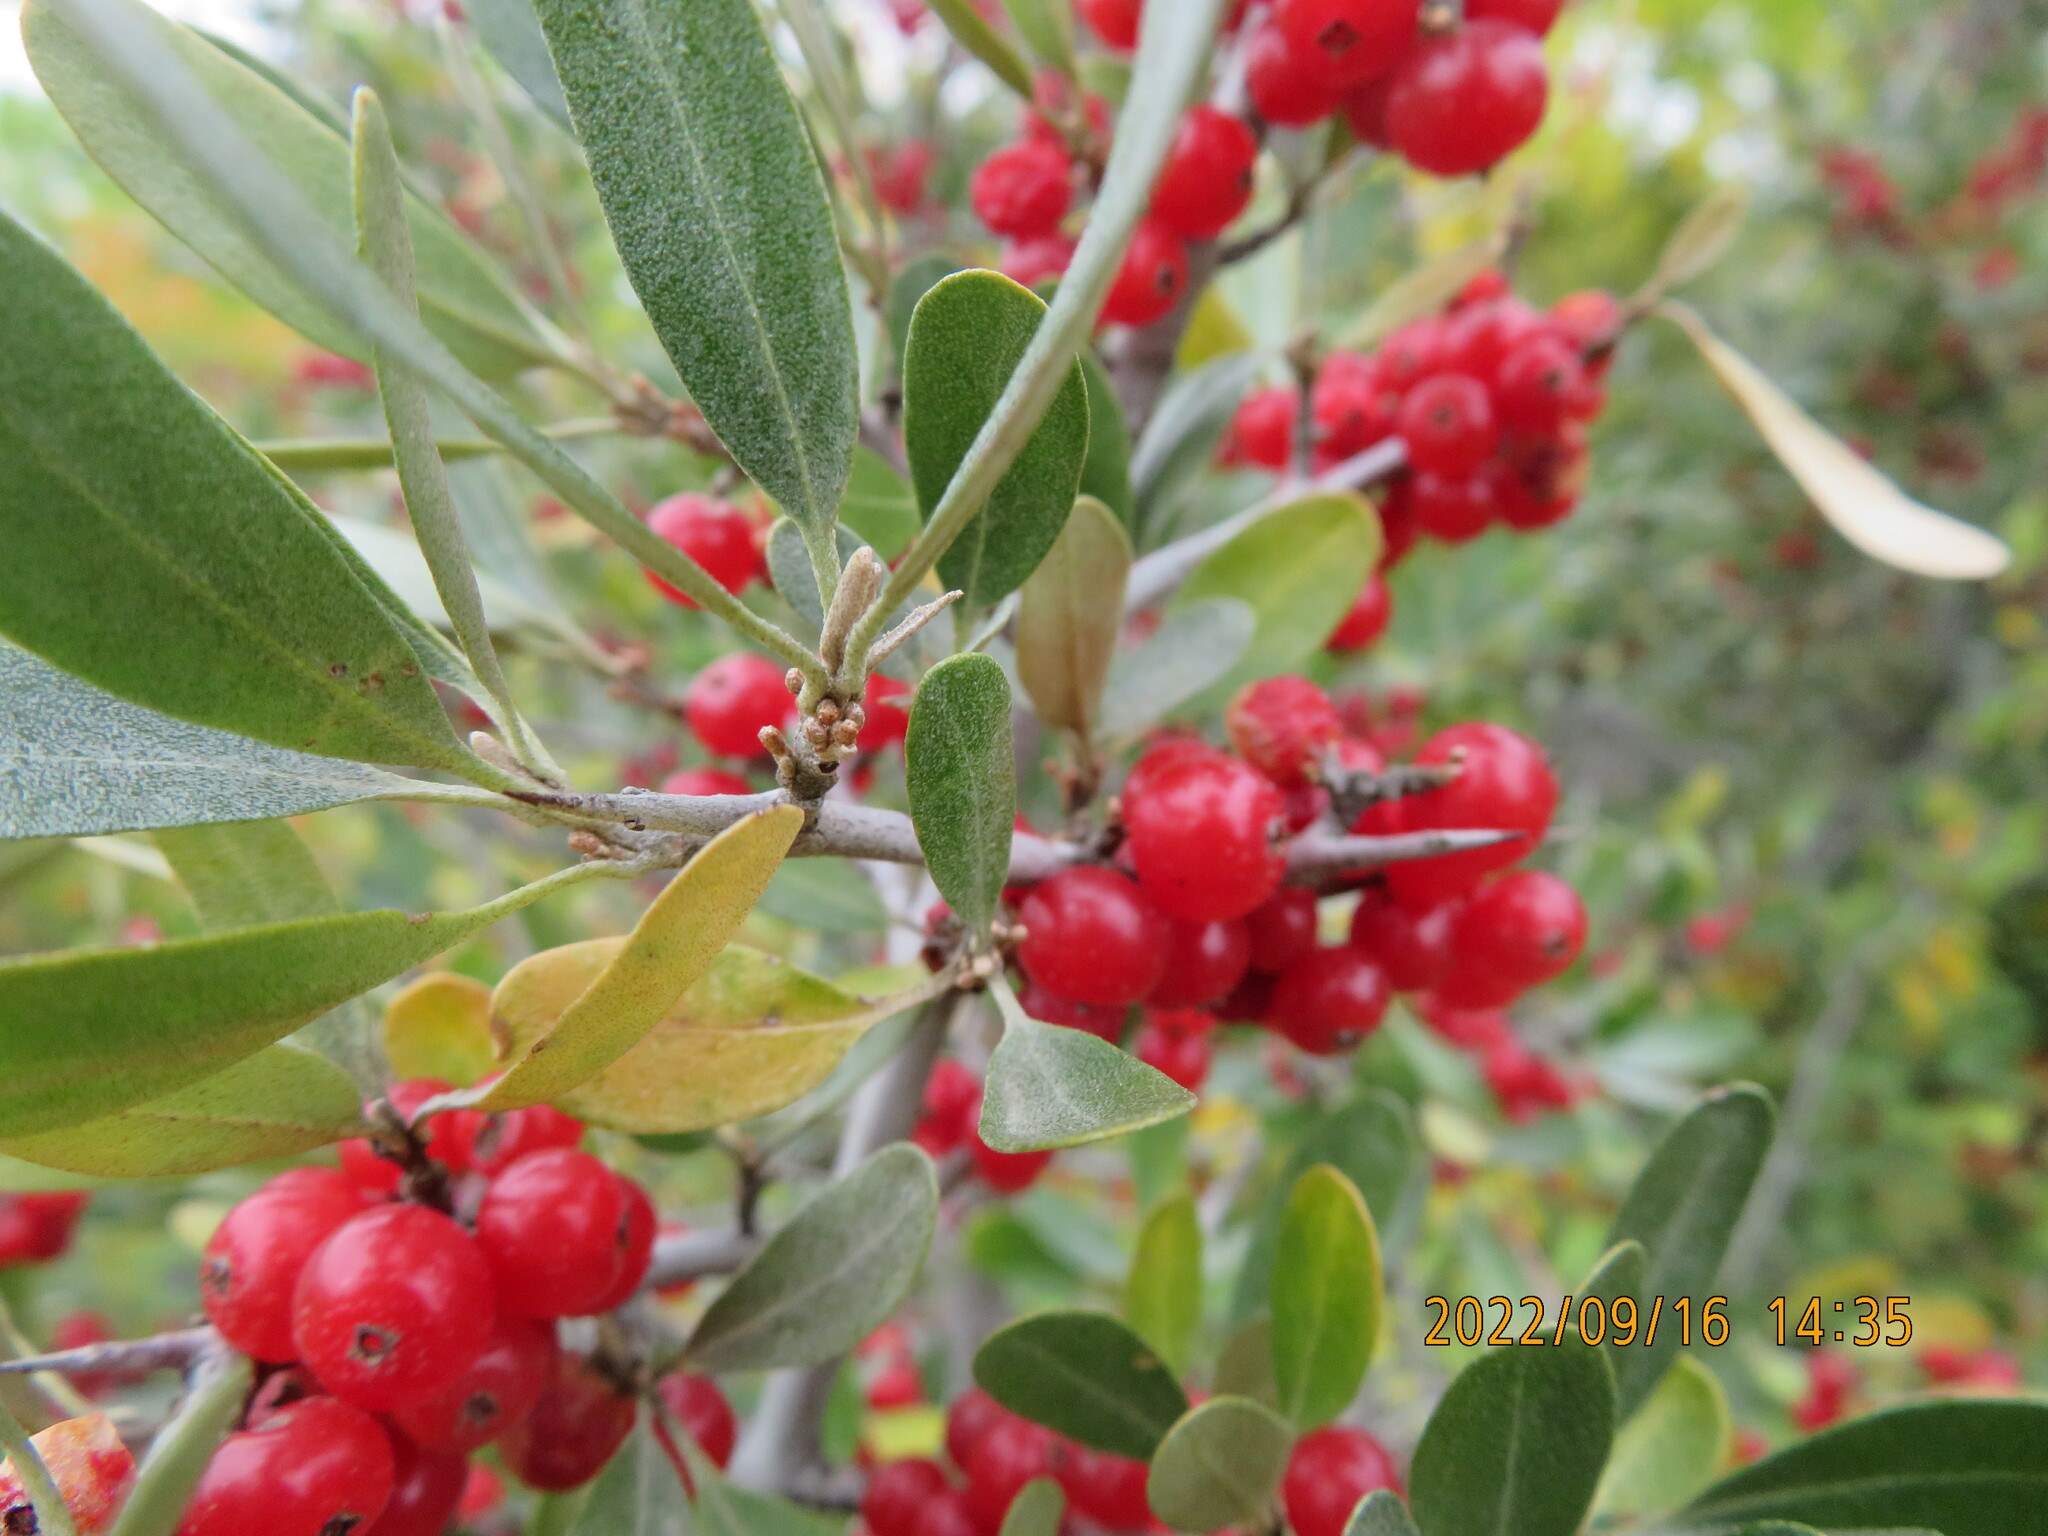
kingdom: Plantae
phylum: Tracheophyta
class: Magnoliopsida
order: Rosales
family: Elaeagnaceae
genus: Shepherdia
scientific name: Shepherdia argentea
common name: Silver buffaloberry
